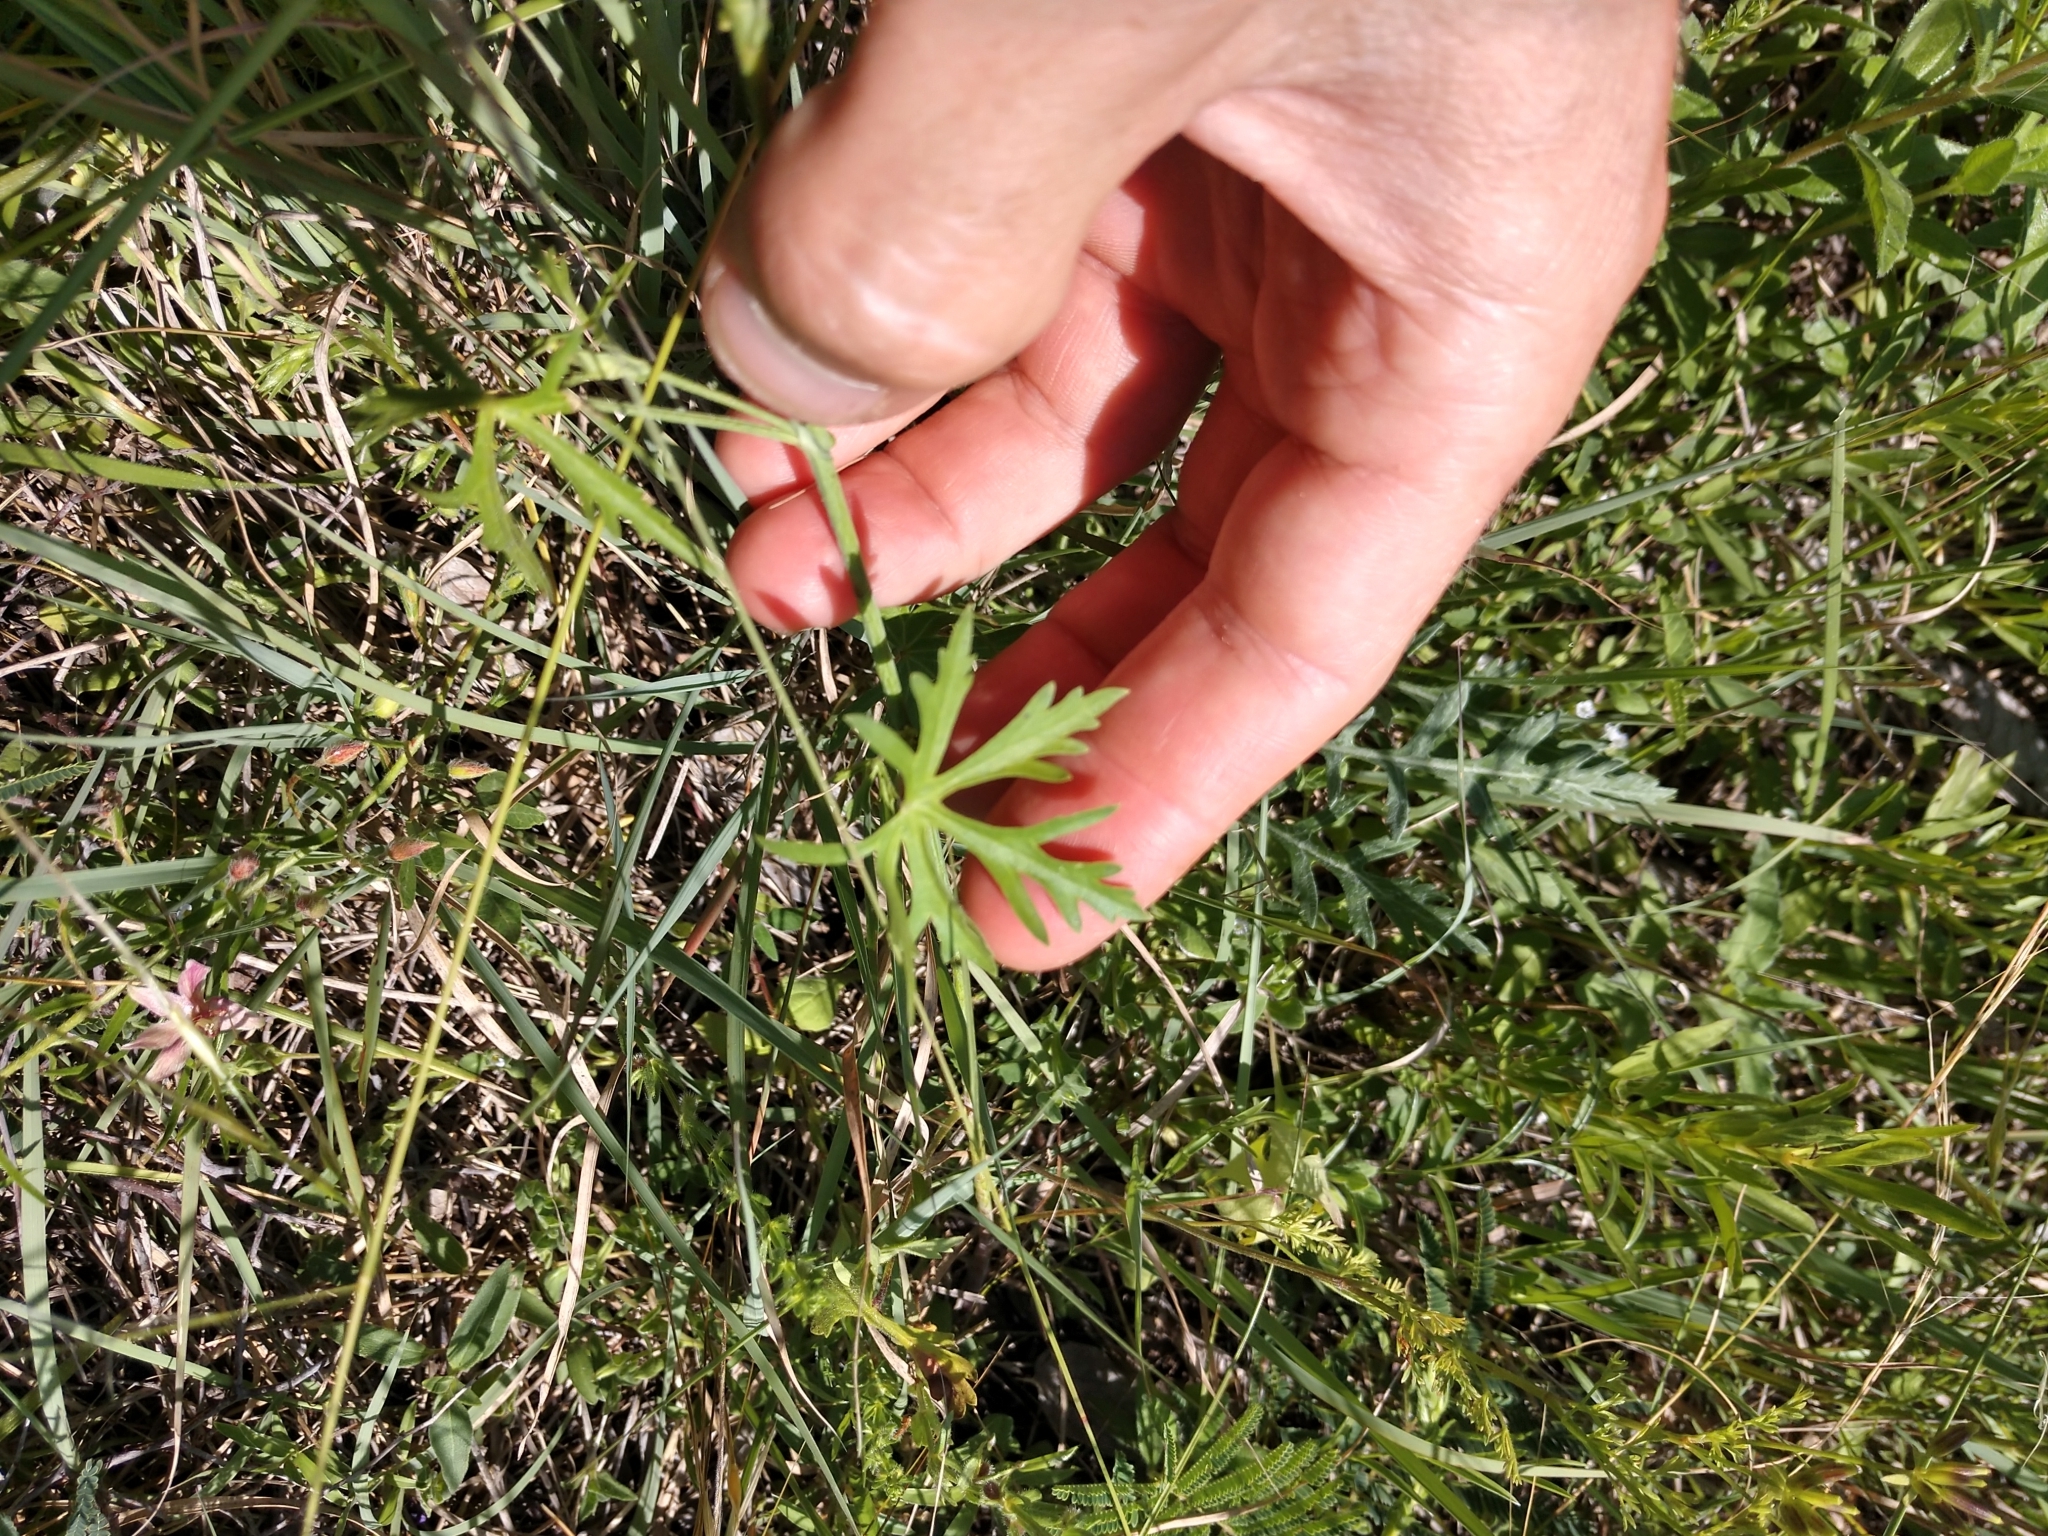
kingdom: Plantae
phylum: Tracheophyta
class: Magnoliopsida
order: Malvales
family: Malvaceae
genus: Callirhoe
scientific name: Callirhoe leiocarpa
